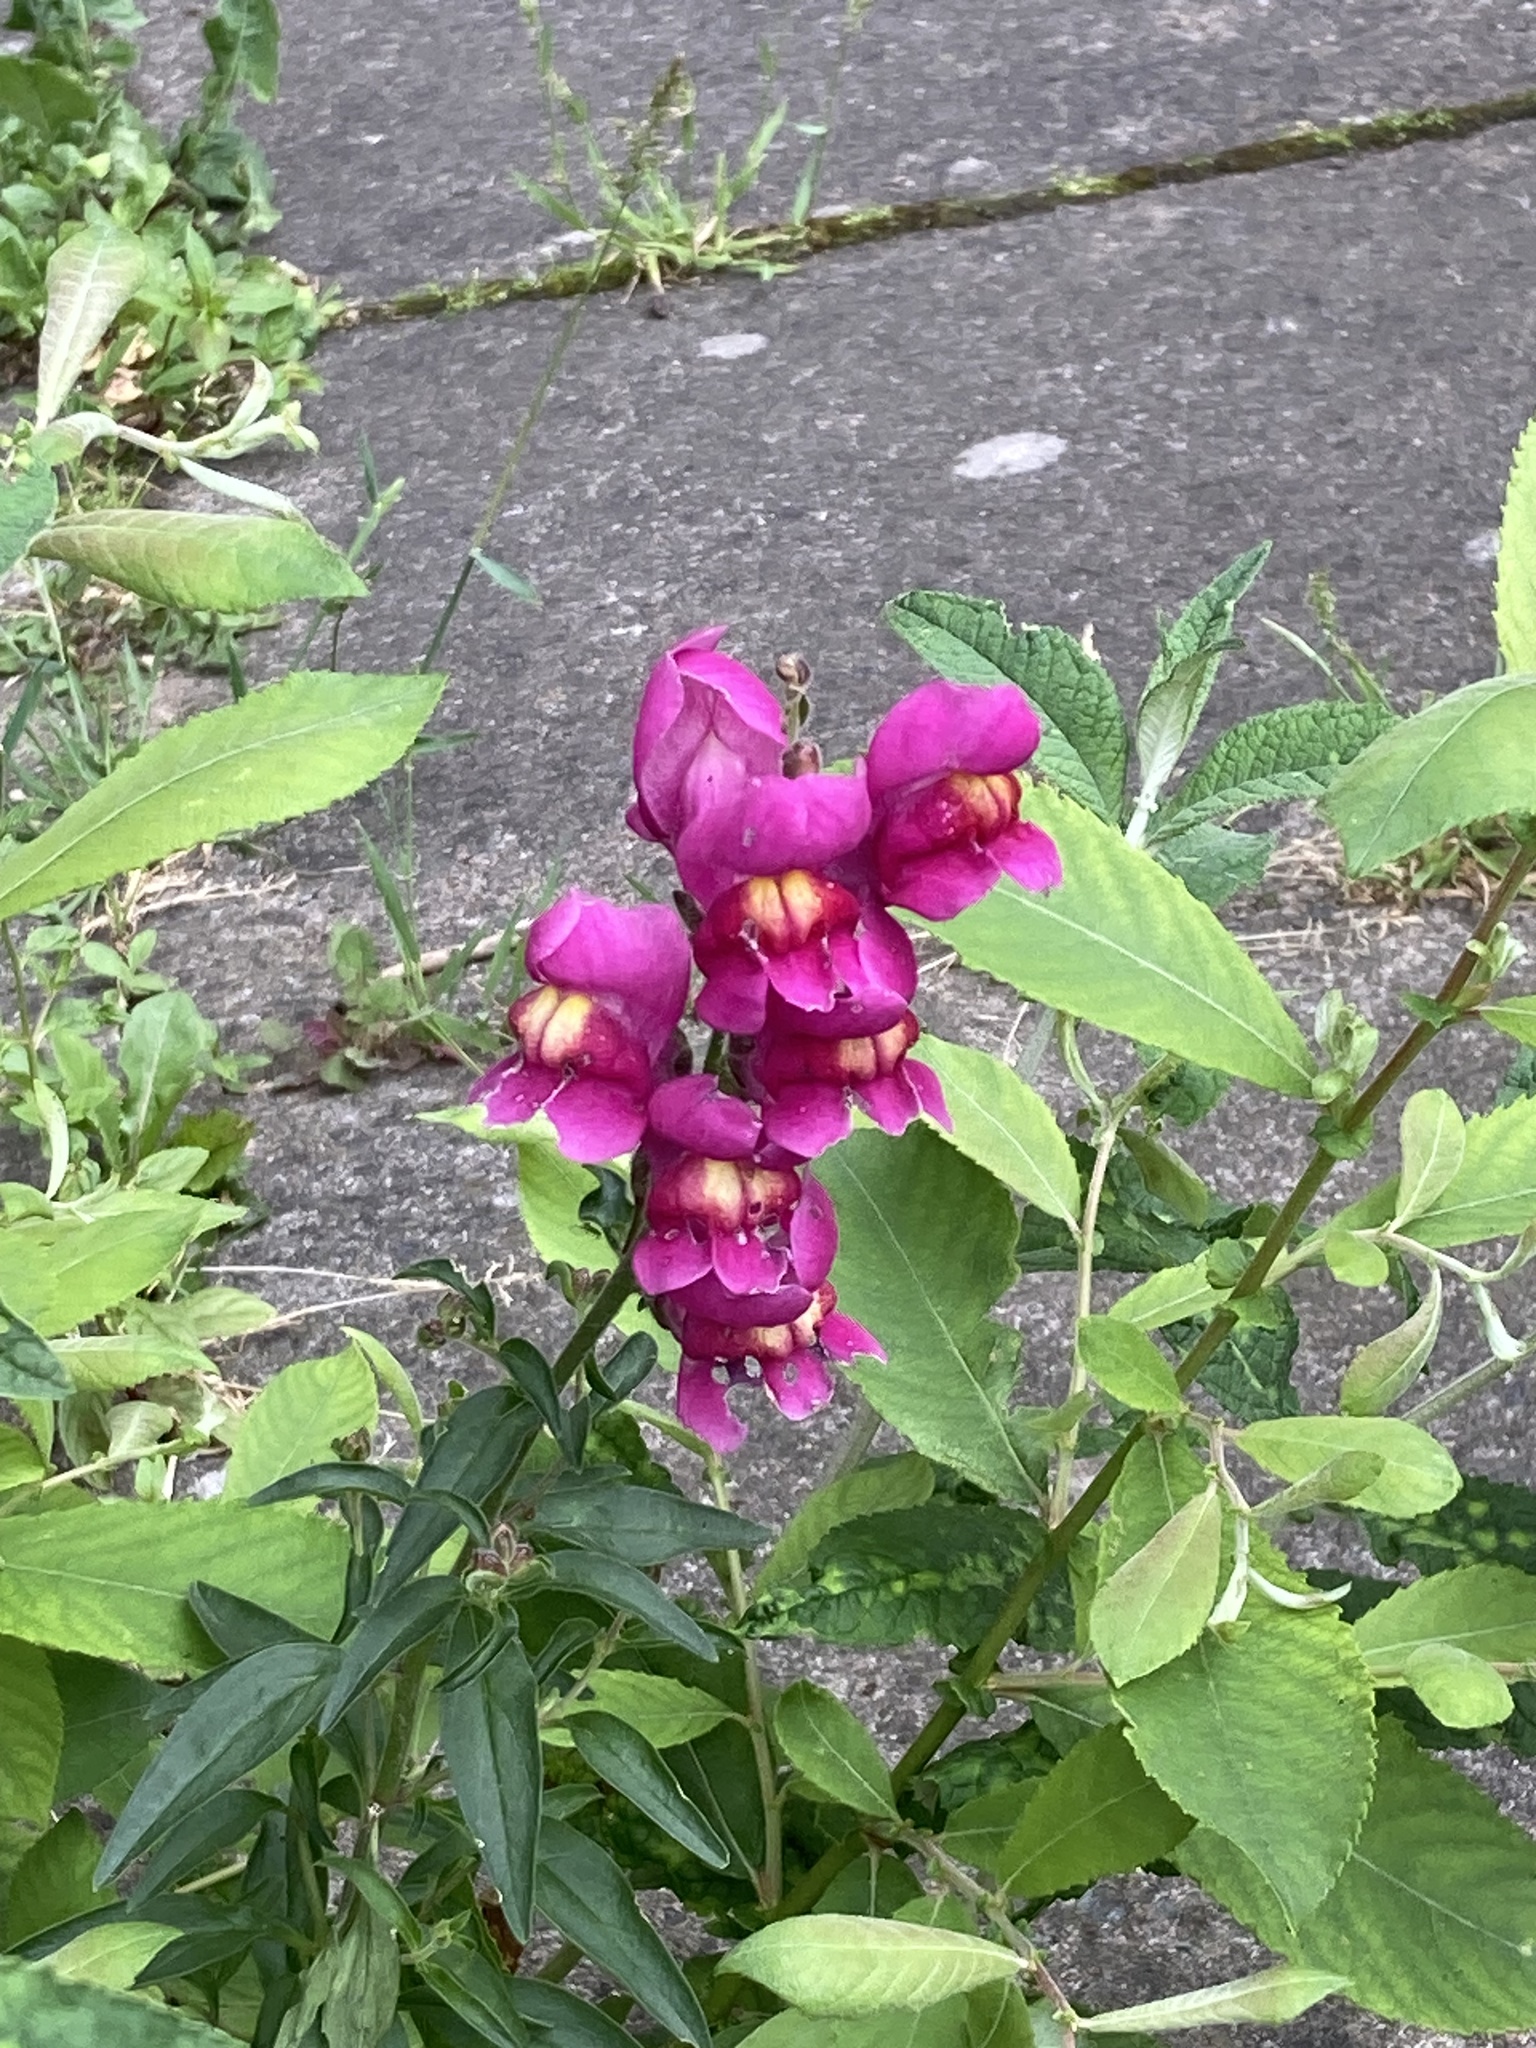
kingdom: Plantae
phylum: Tracheophyta
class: Magnoliopsida
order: Lamiales
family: Plantaginaceae
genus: Antirrhinum
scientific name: Antirrhinum majus
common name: Snapdragon
